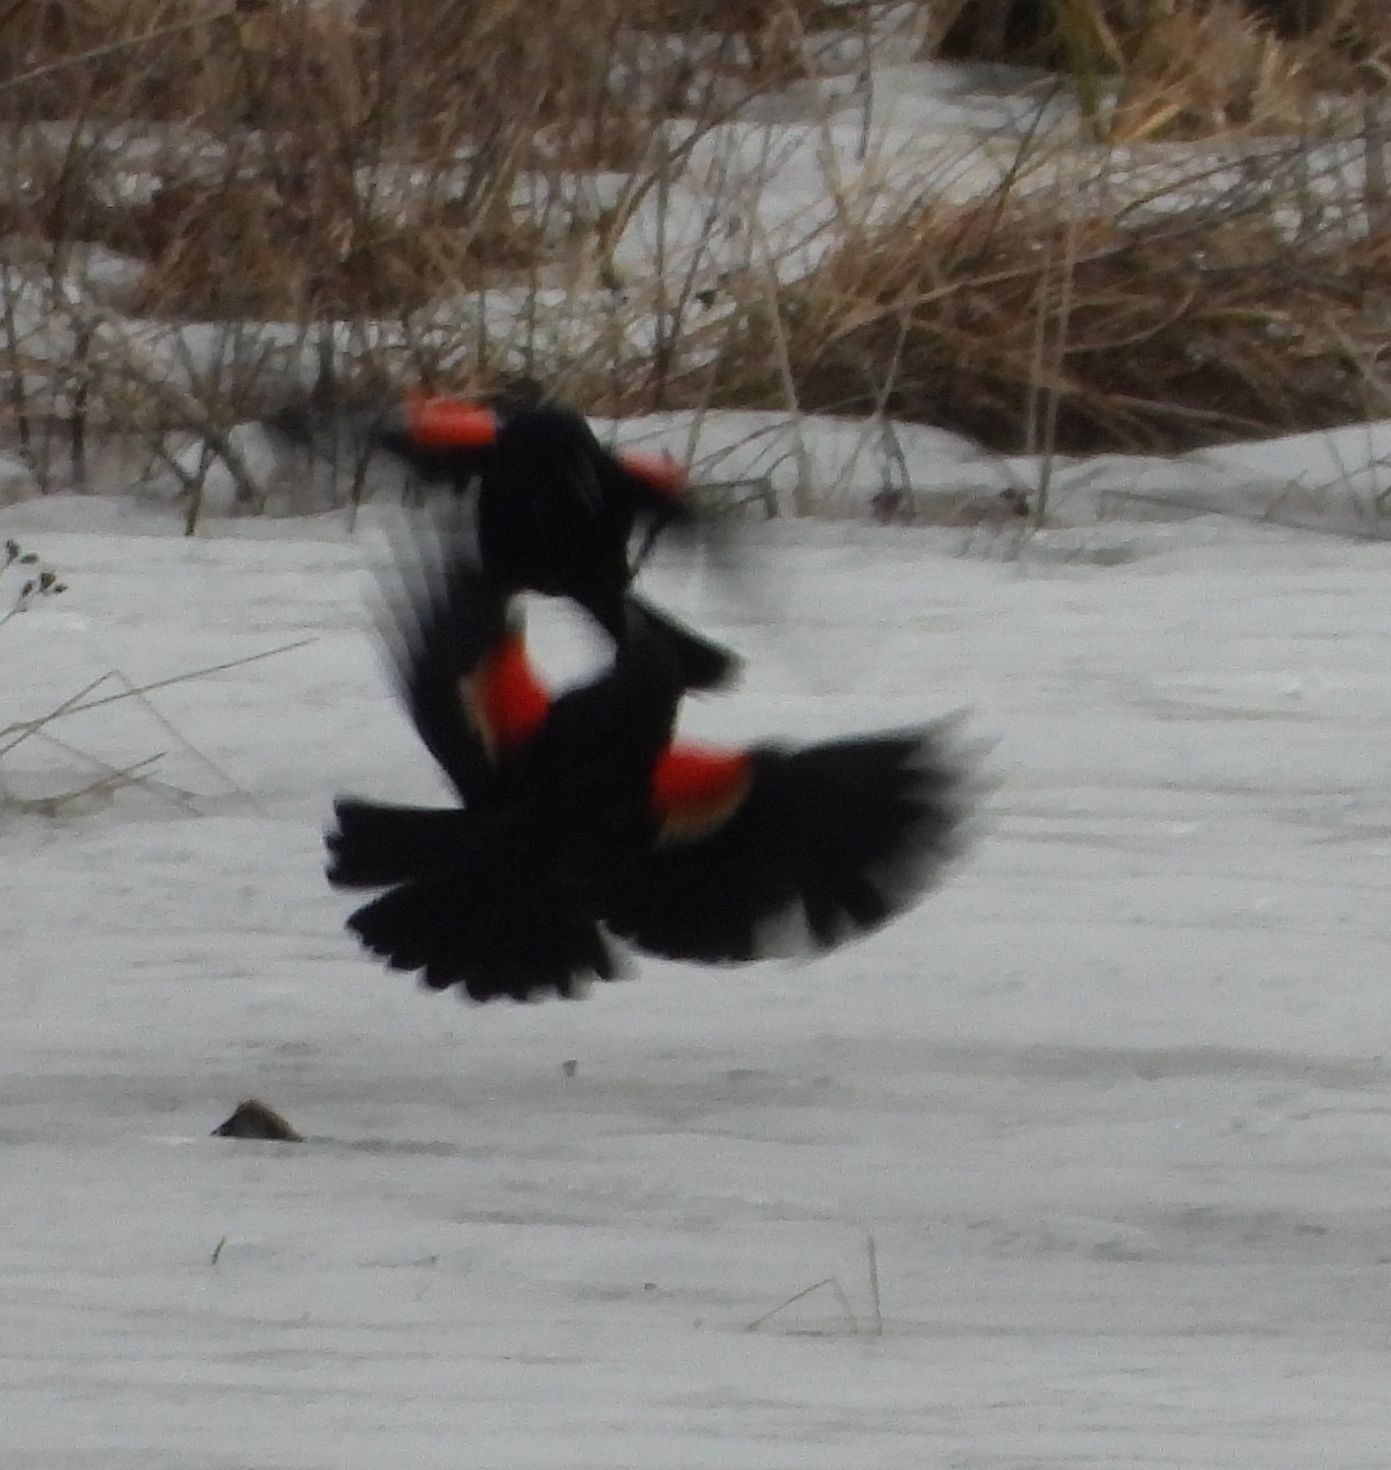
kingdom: Animalia
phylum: Chordata
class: Aves
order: Passeriformes
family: Icteridae
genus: Agelaius
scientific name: Agelaius phoeniceus
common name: Red-winged blackbird
